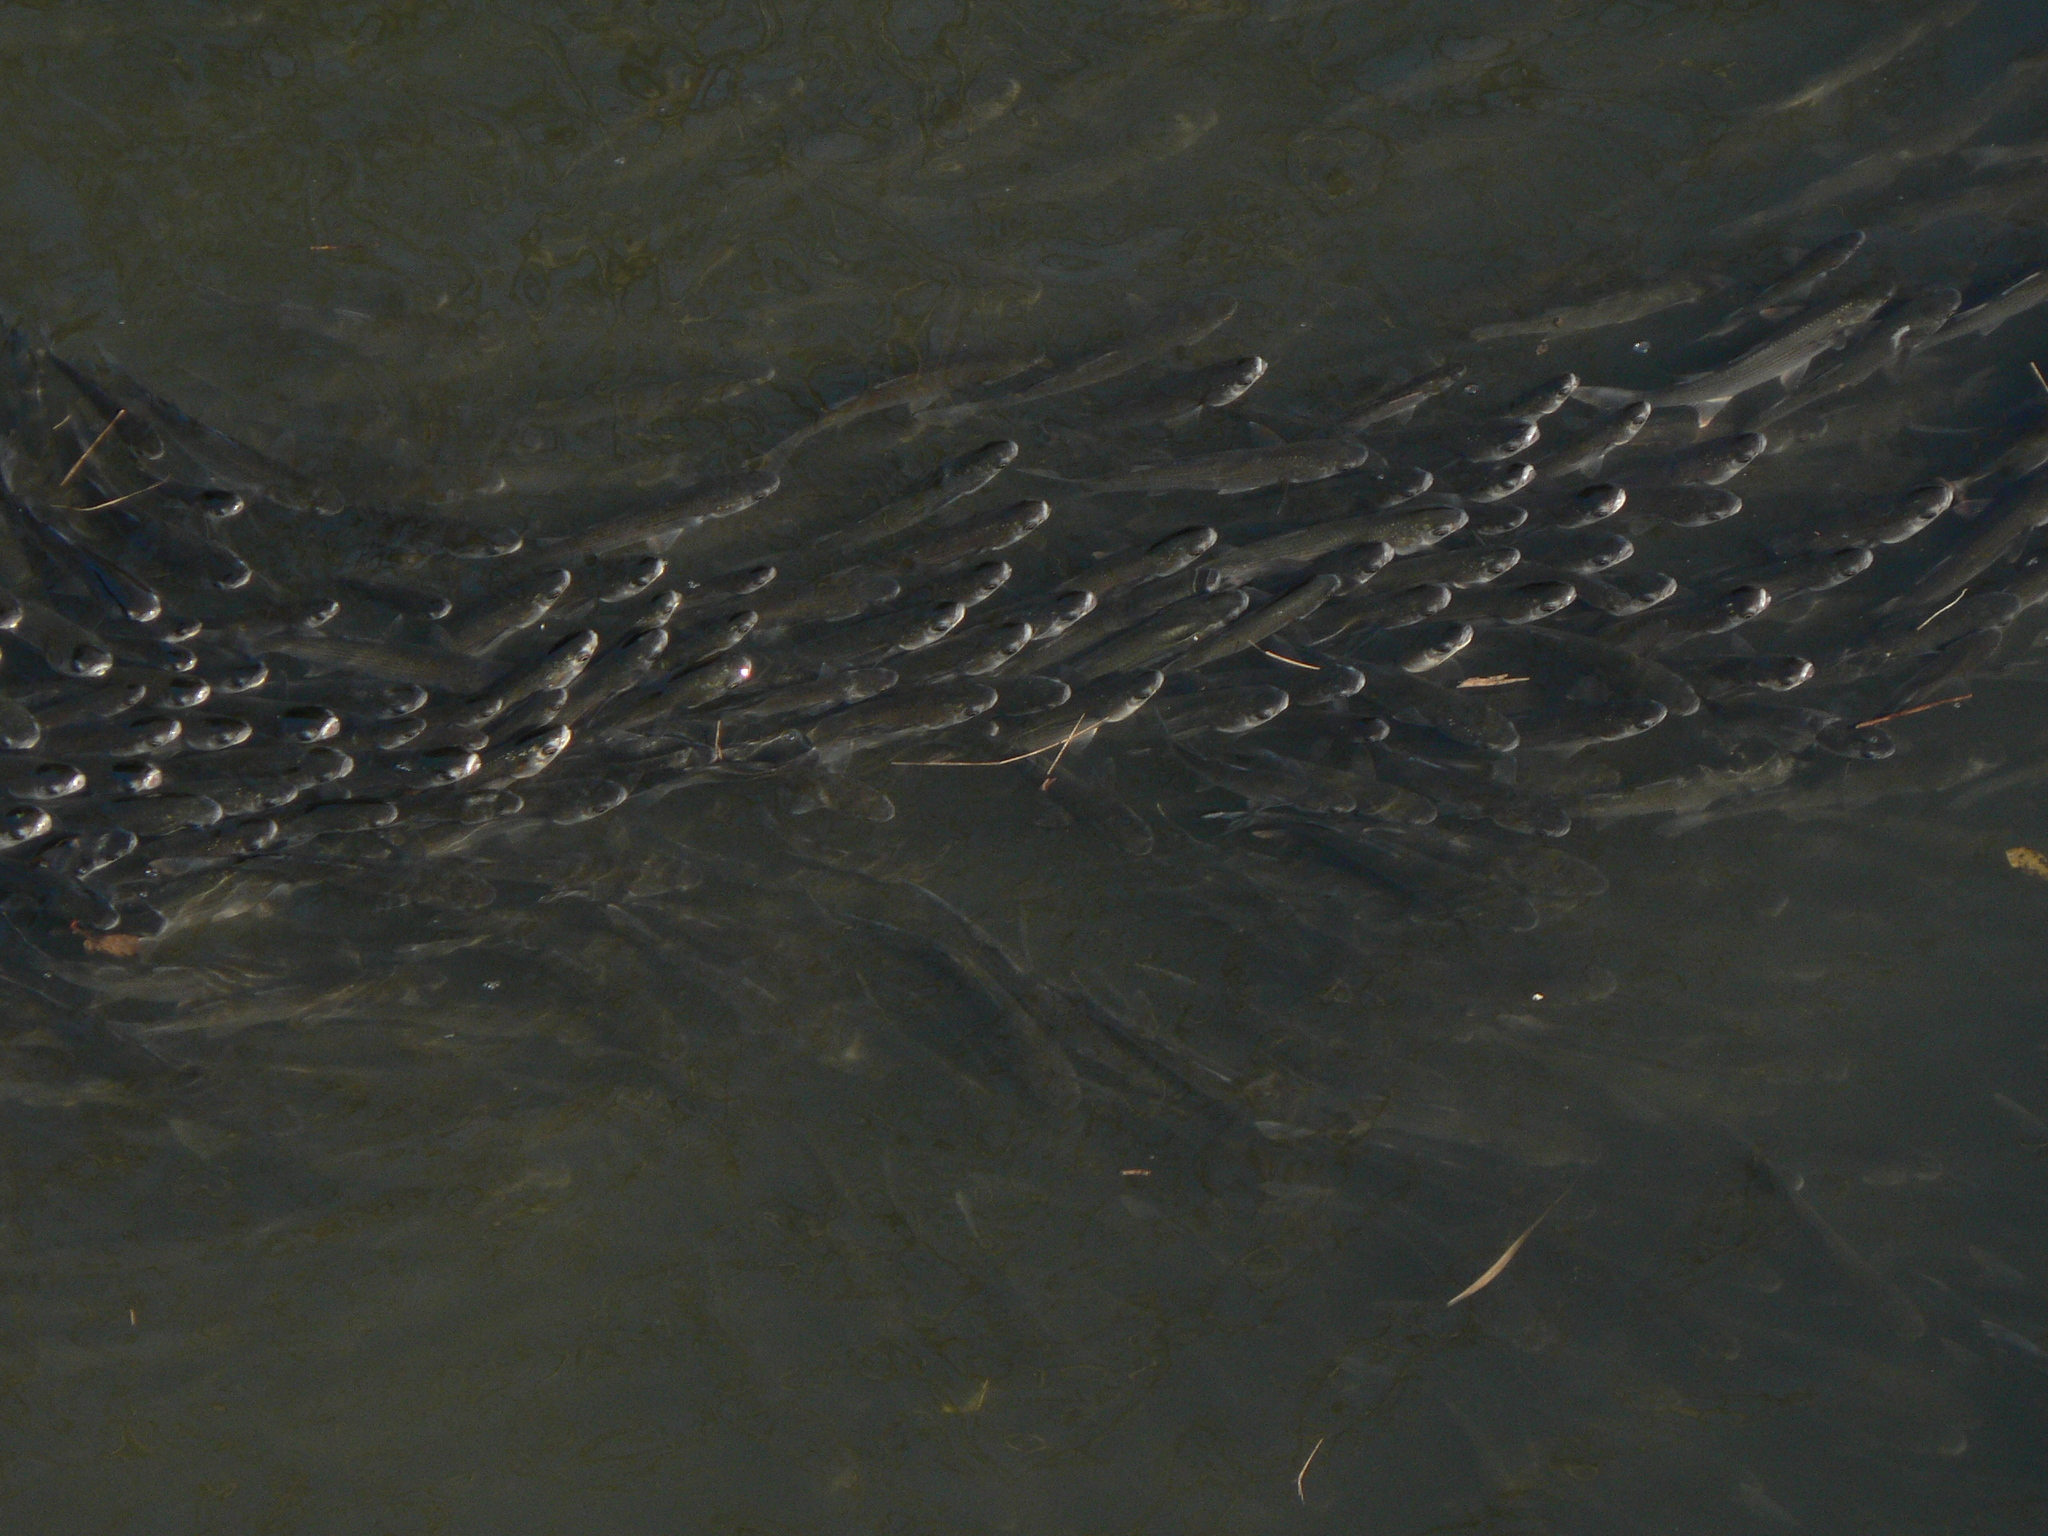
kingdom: Animalia
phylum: Chordata
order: Mugiliformes
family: Mugilidae
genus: Mugil
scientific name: Mugil cephalus
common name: Grey mullet
